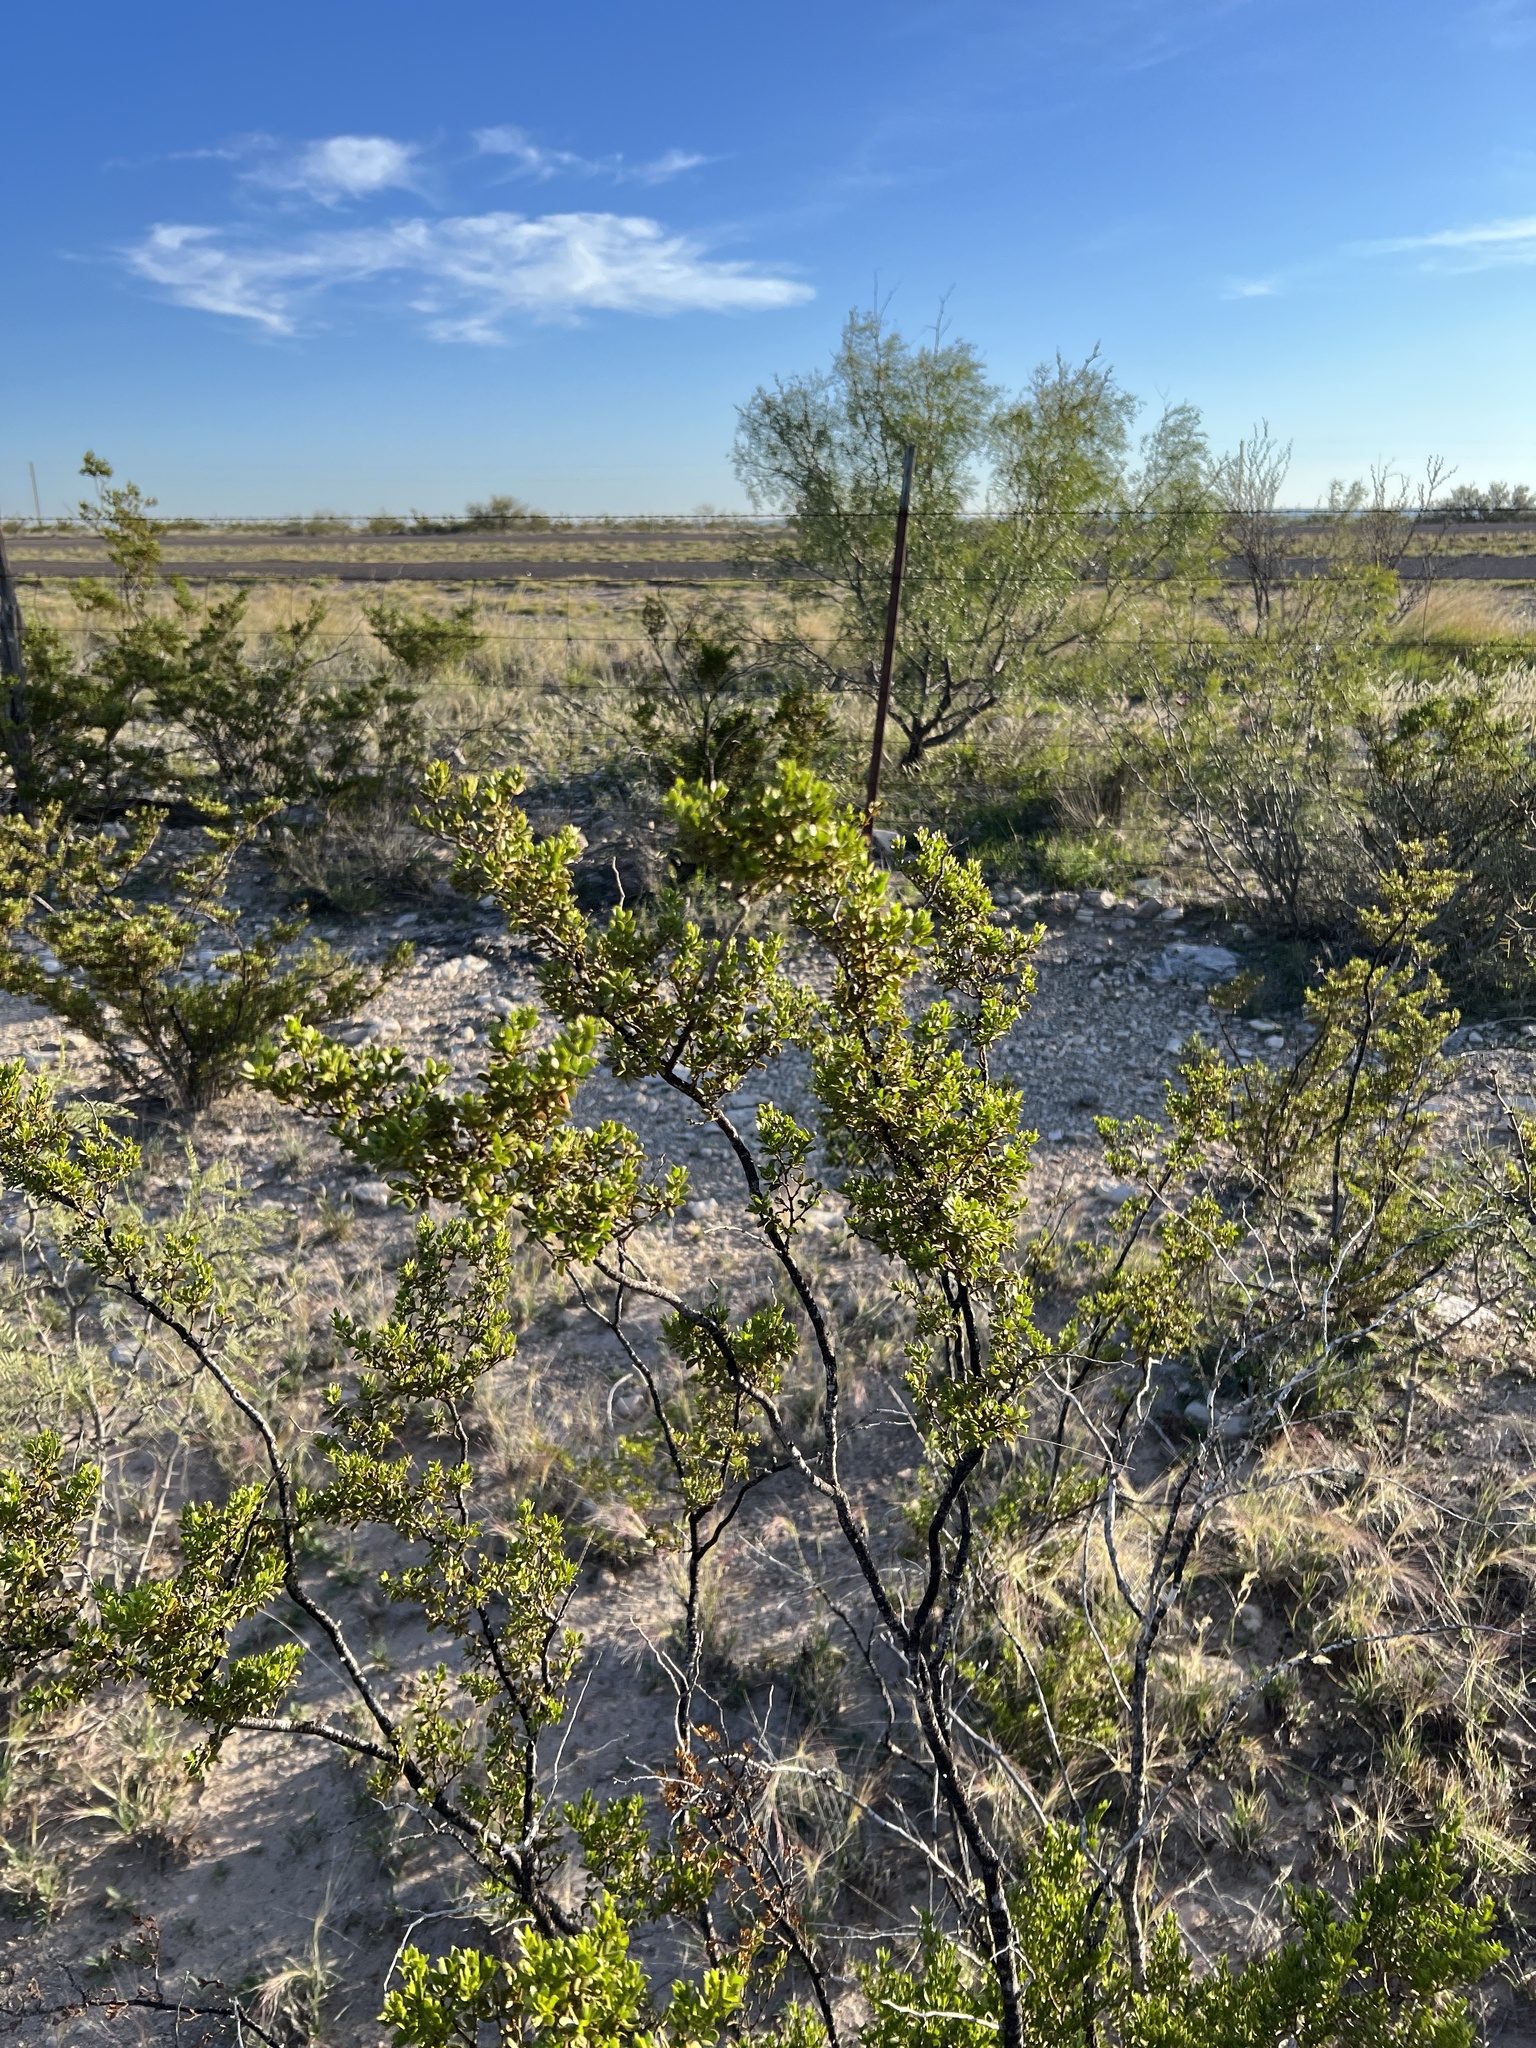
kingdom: Plantae
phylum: Tracheophyta
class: Magnoliopsida
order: Zygophyllales
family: Zygophyllaceae
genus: Larrea
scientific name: Larrea tridentata
